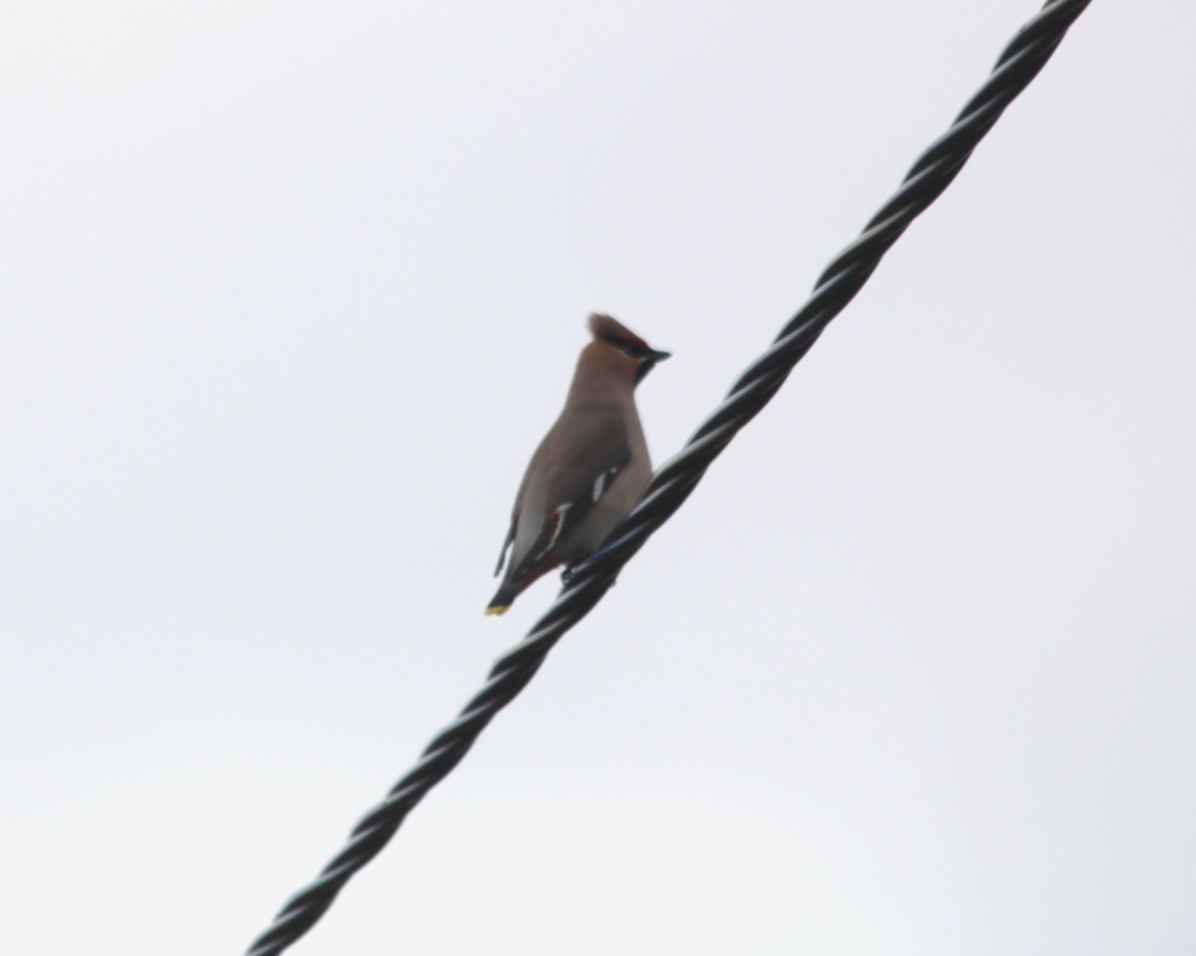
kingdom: Animalia
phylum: Chordata
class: Aves
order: Passeriformes
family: Bombycillidae
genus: Bombycilla
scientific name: Bombycilla garrulus
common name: Bohemian waxwing
